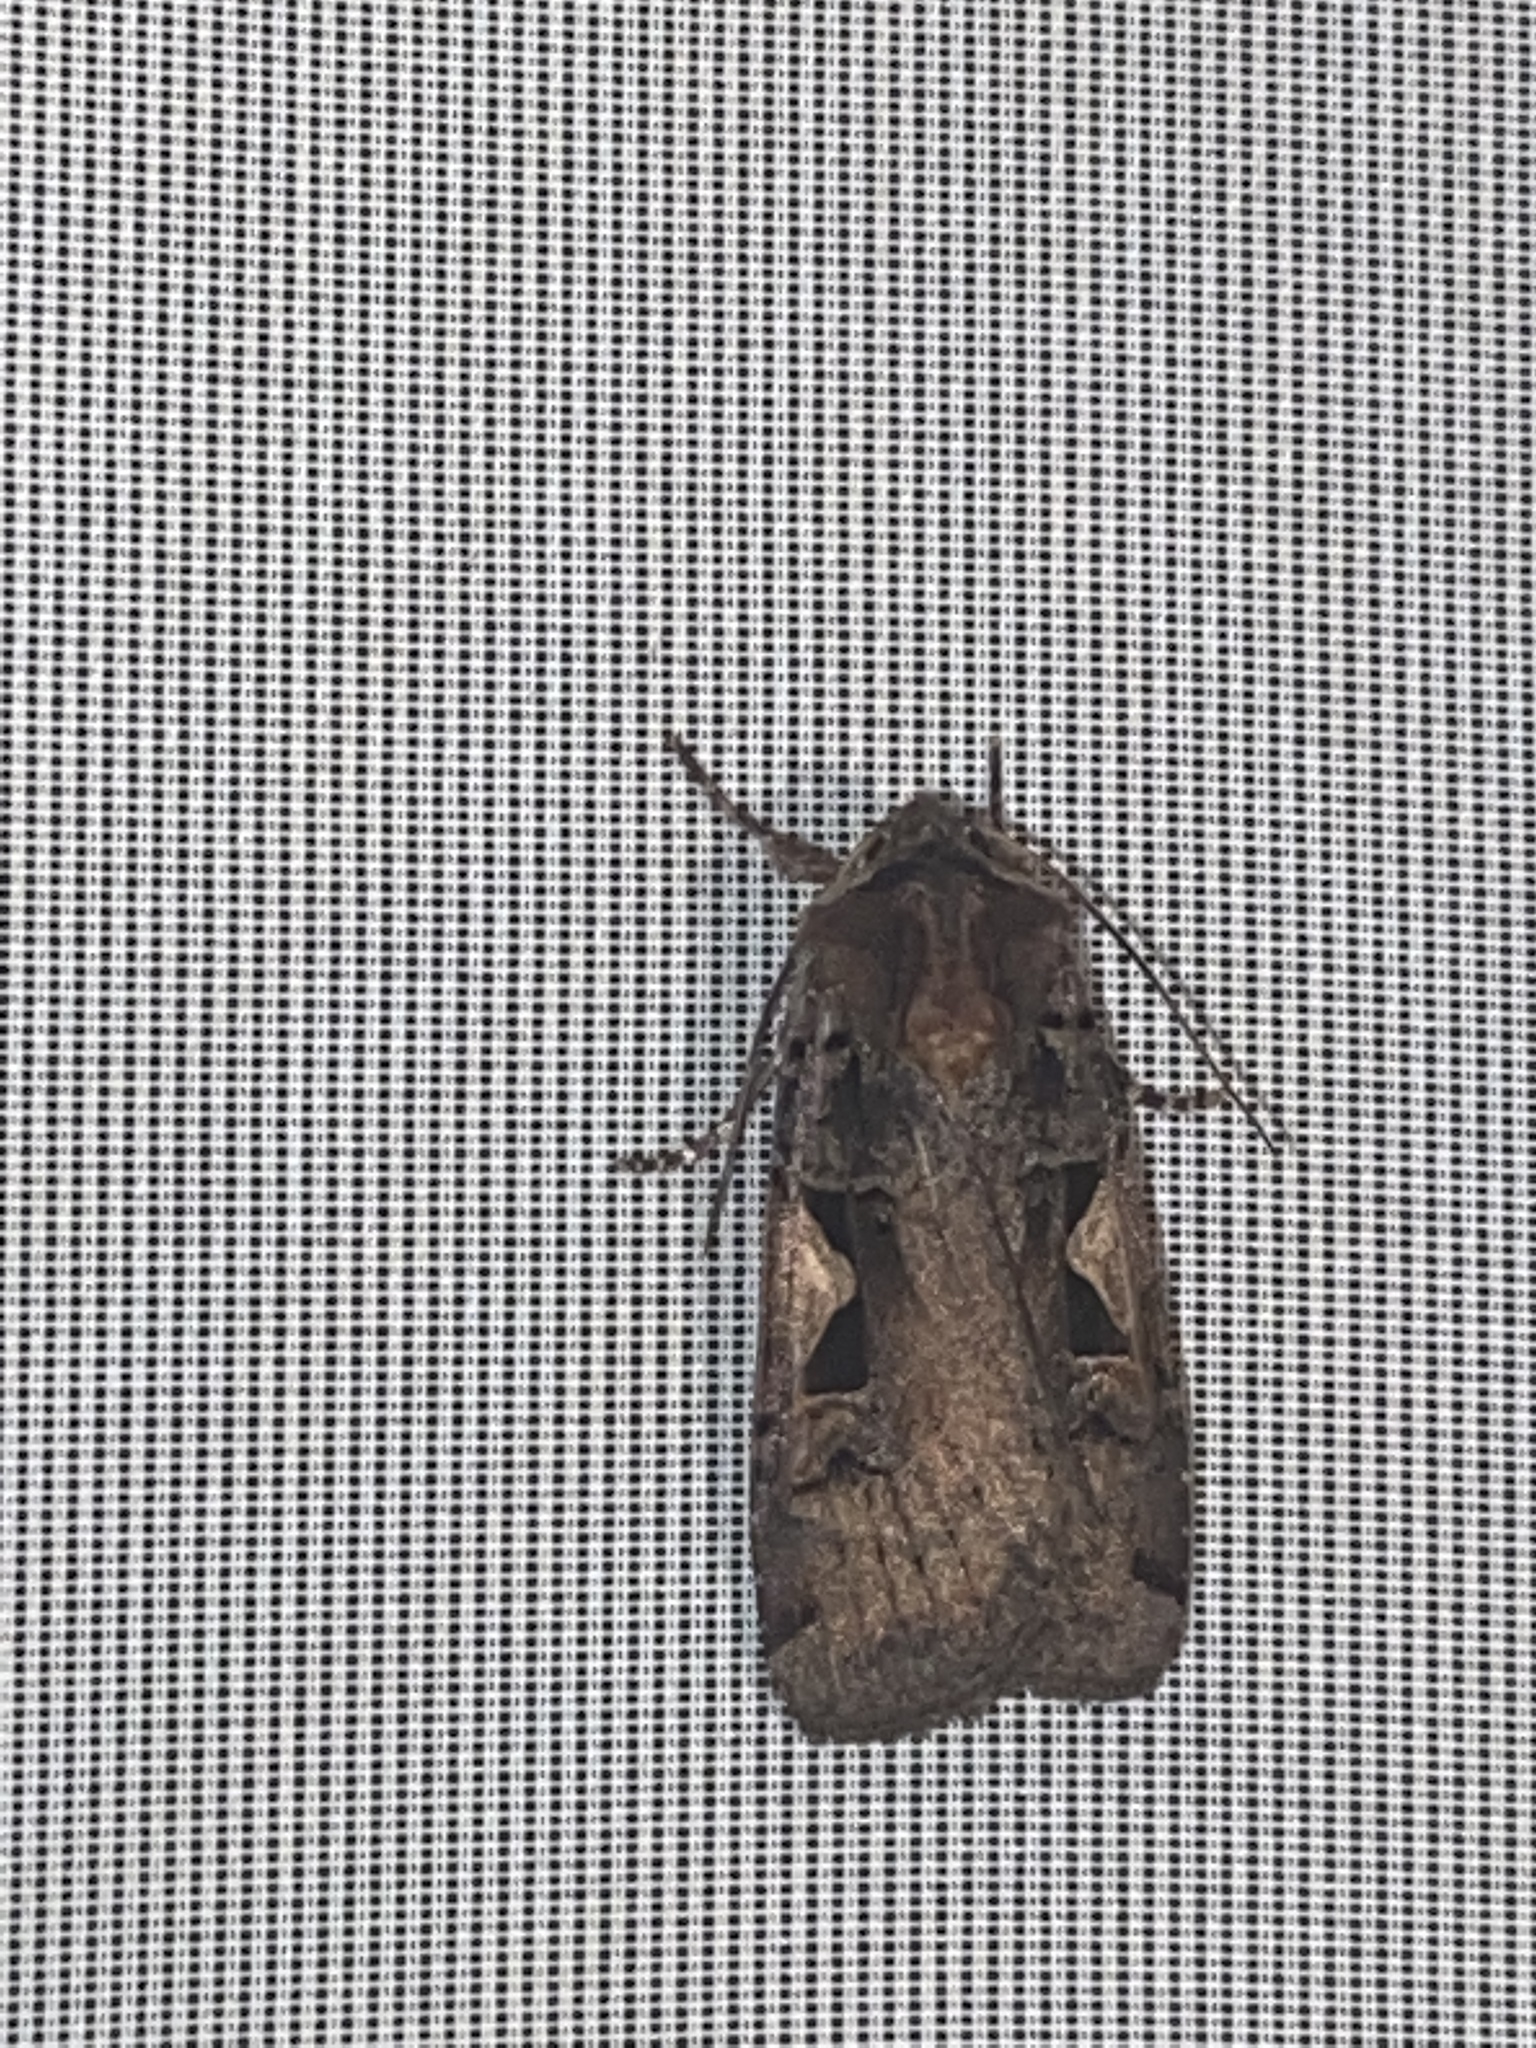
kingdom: Animalia
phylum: Arthropoda
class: Insecta
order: Lepidoptera
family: Noctuidae
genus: Xestia
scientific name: Xestia c-nigrum
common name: Setaceous hebrew character
